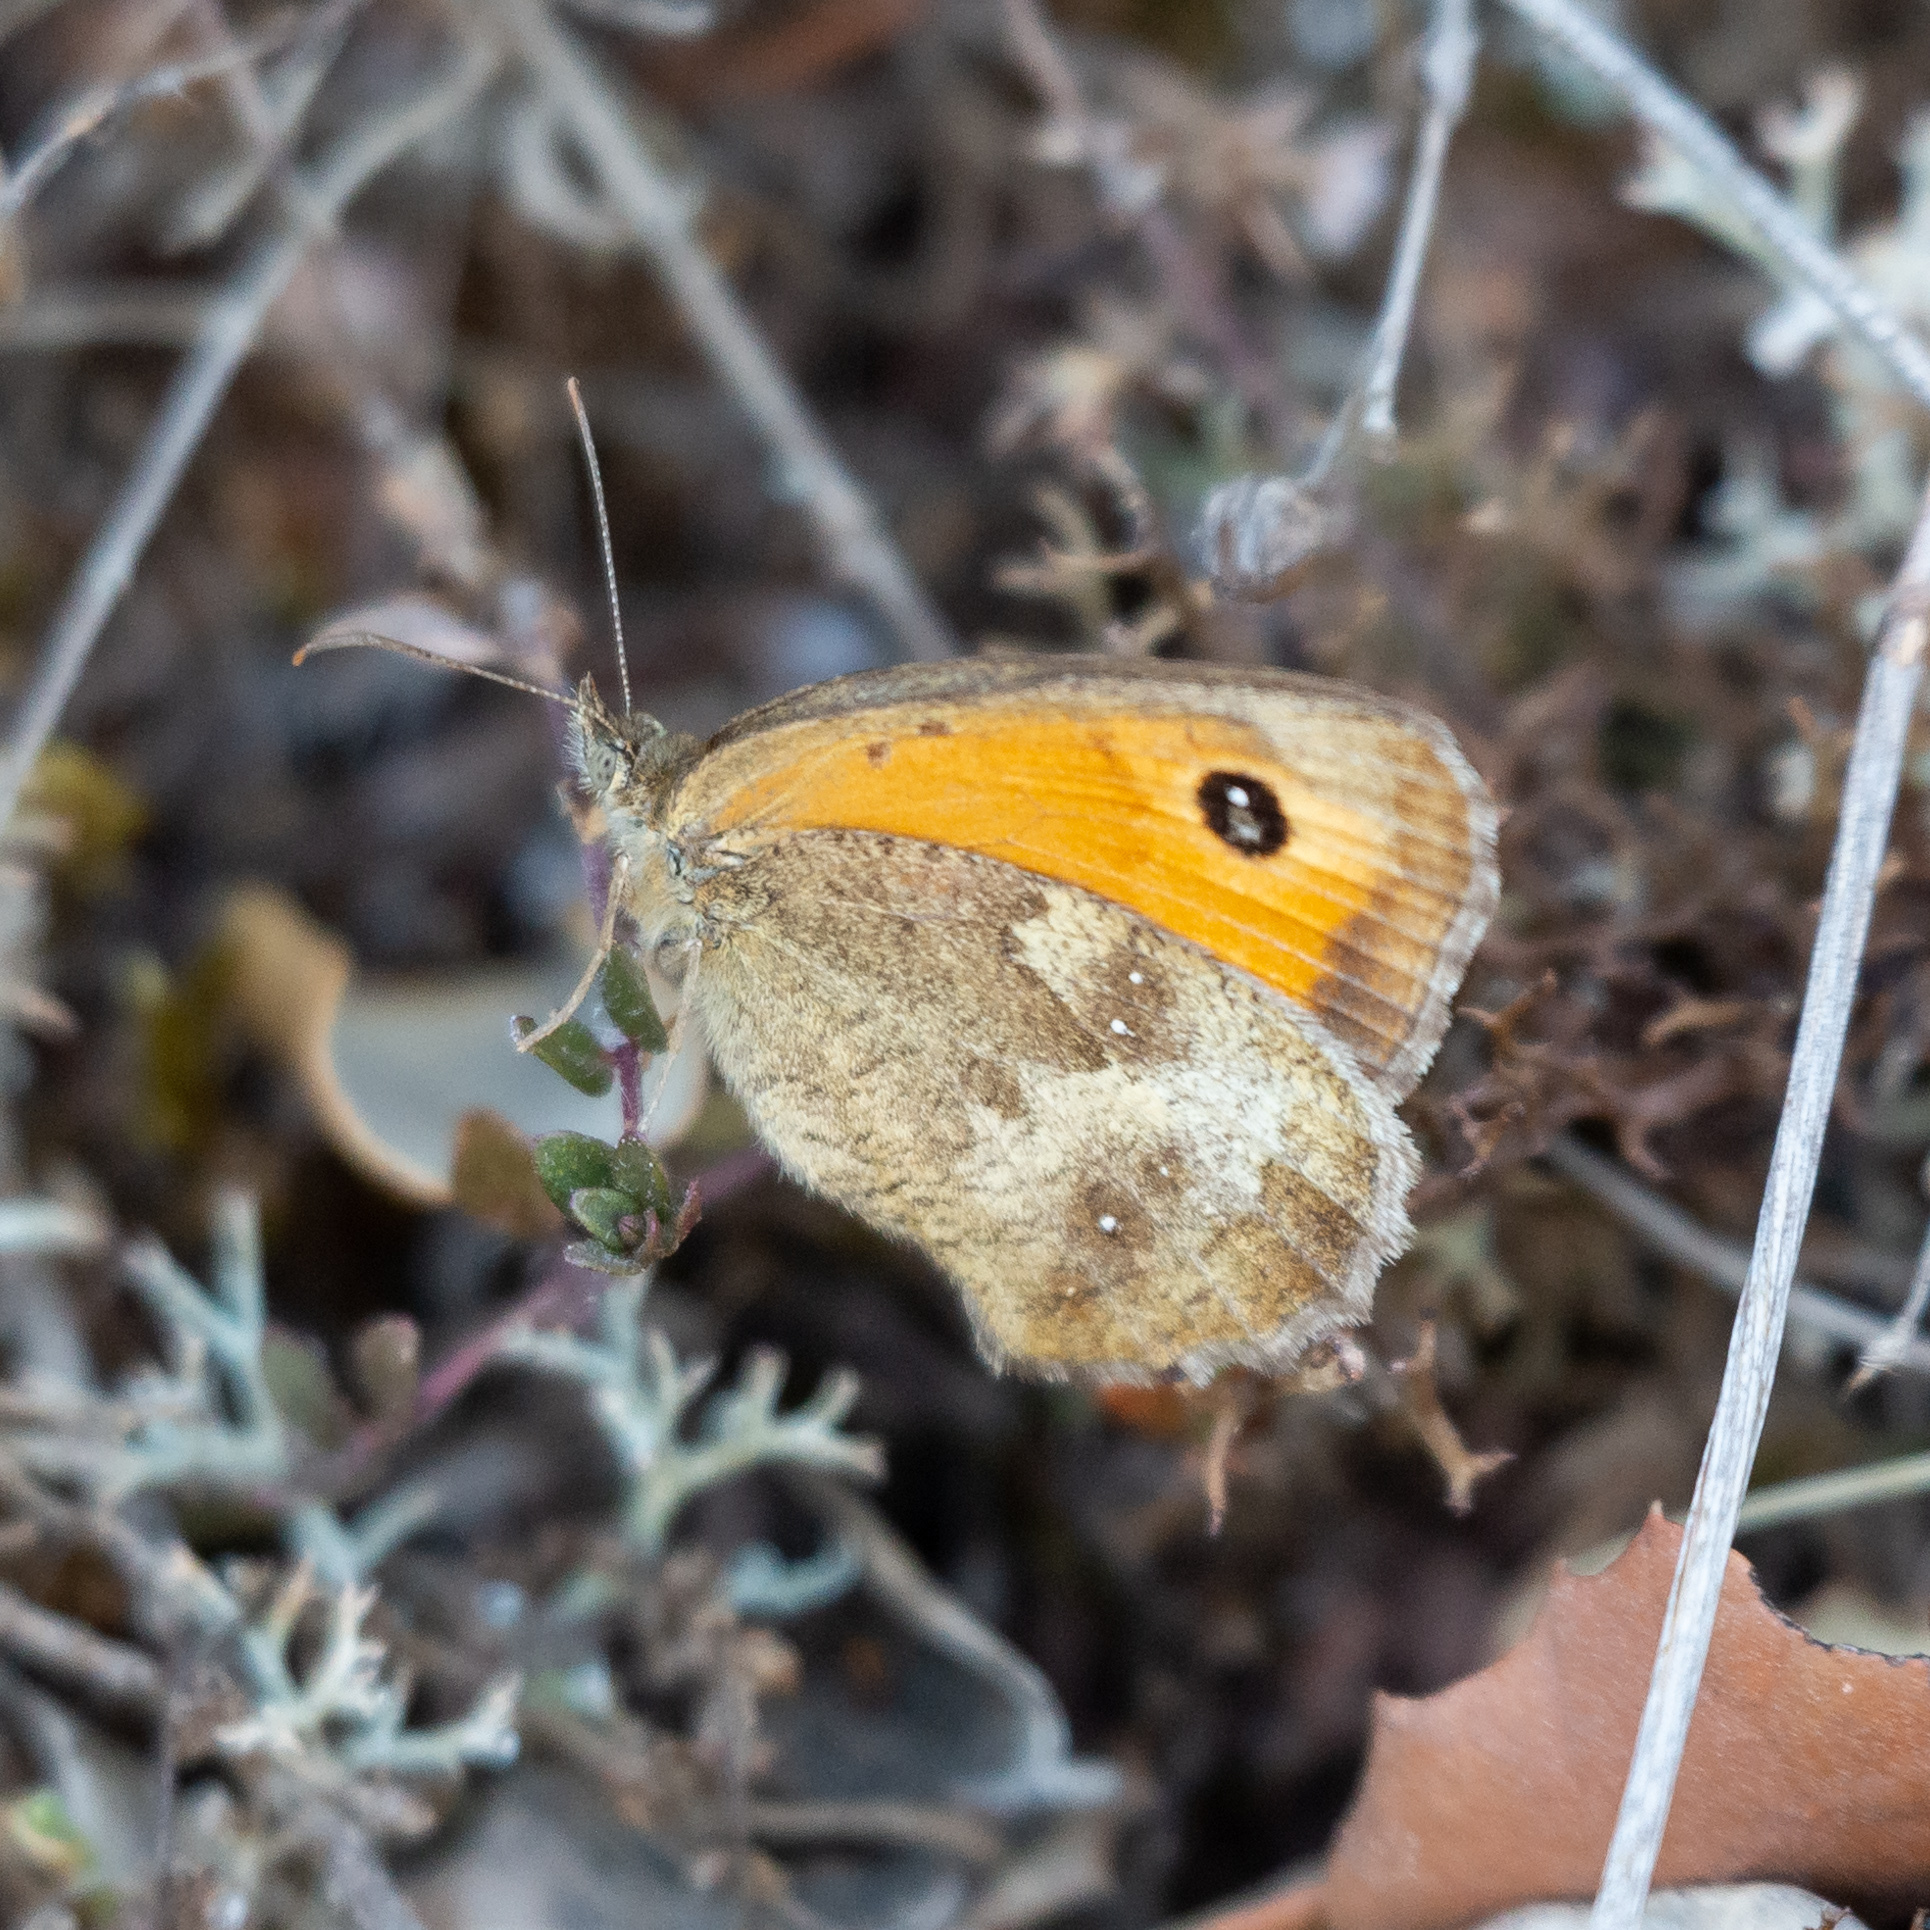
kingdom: Animalia
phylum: Arthropoda
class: Insecta
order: Lepidoptera
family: Nymphalidae
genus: Pyronia
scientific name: Pyronia tithonus
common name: Gatekeeper
